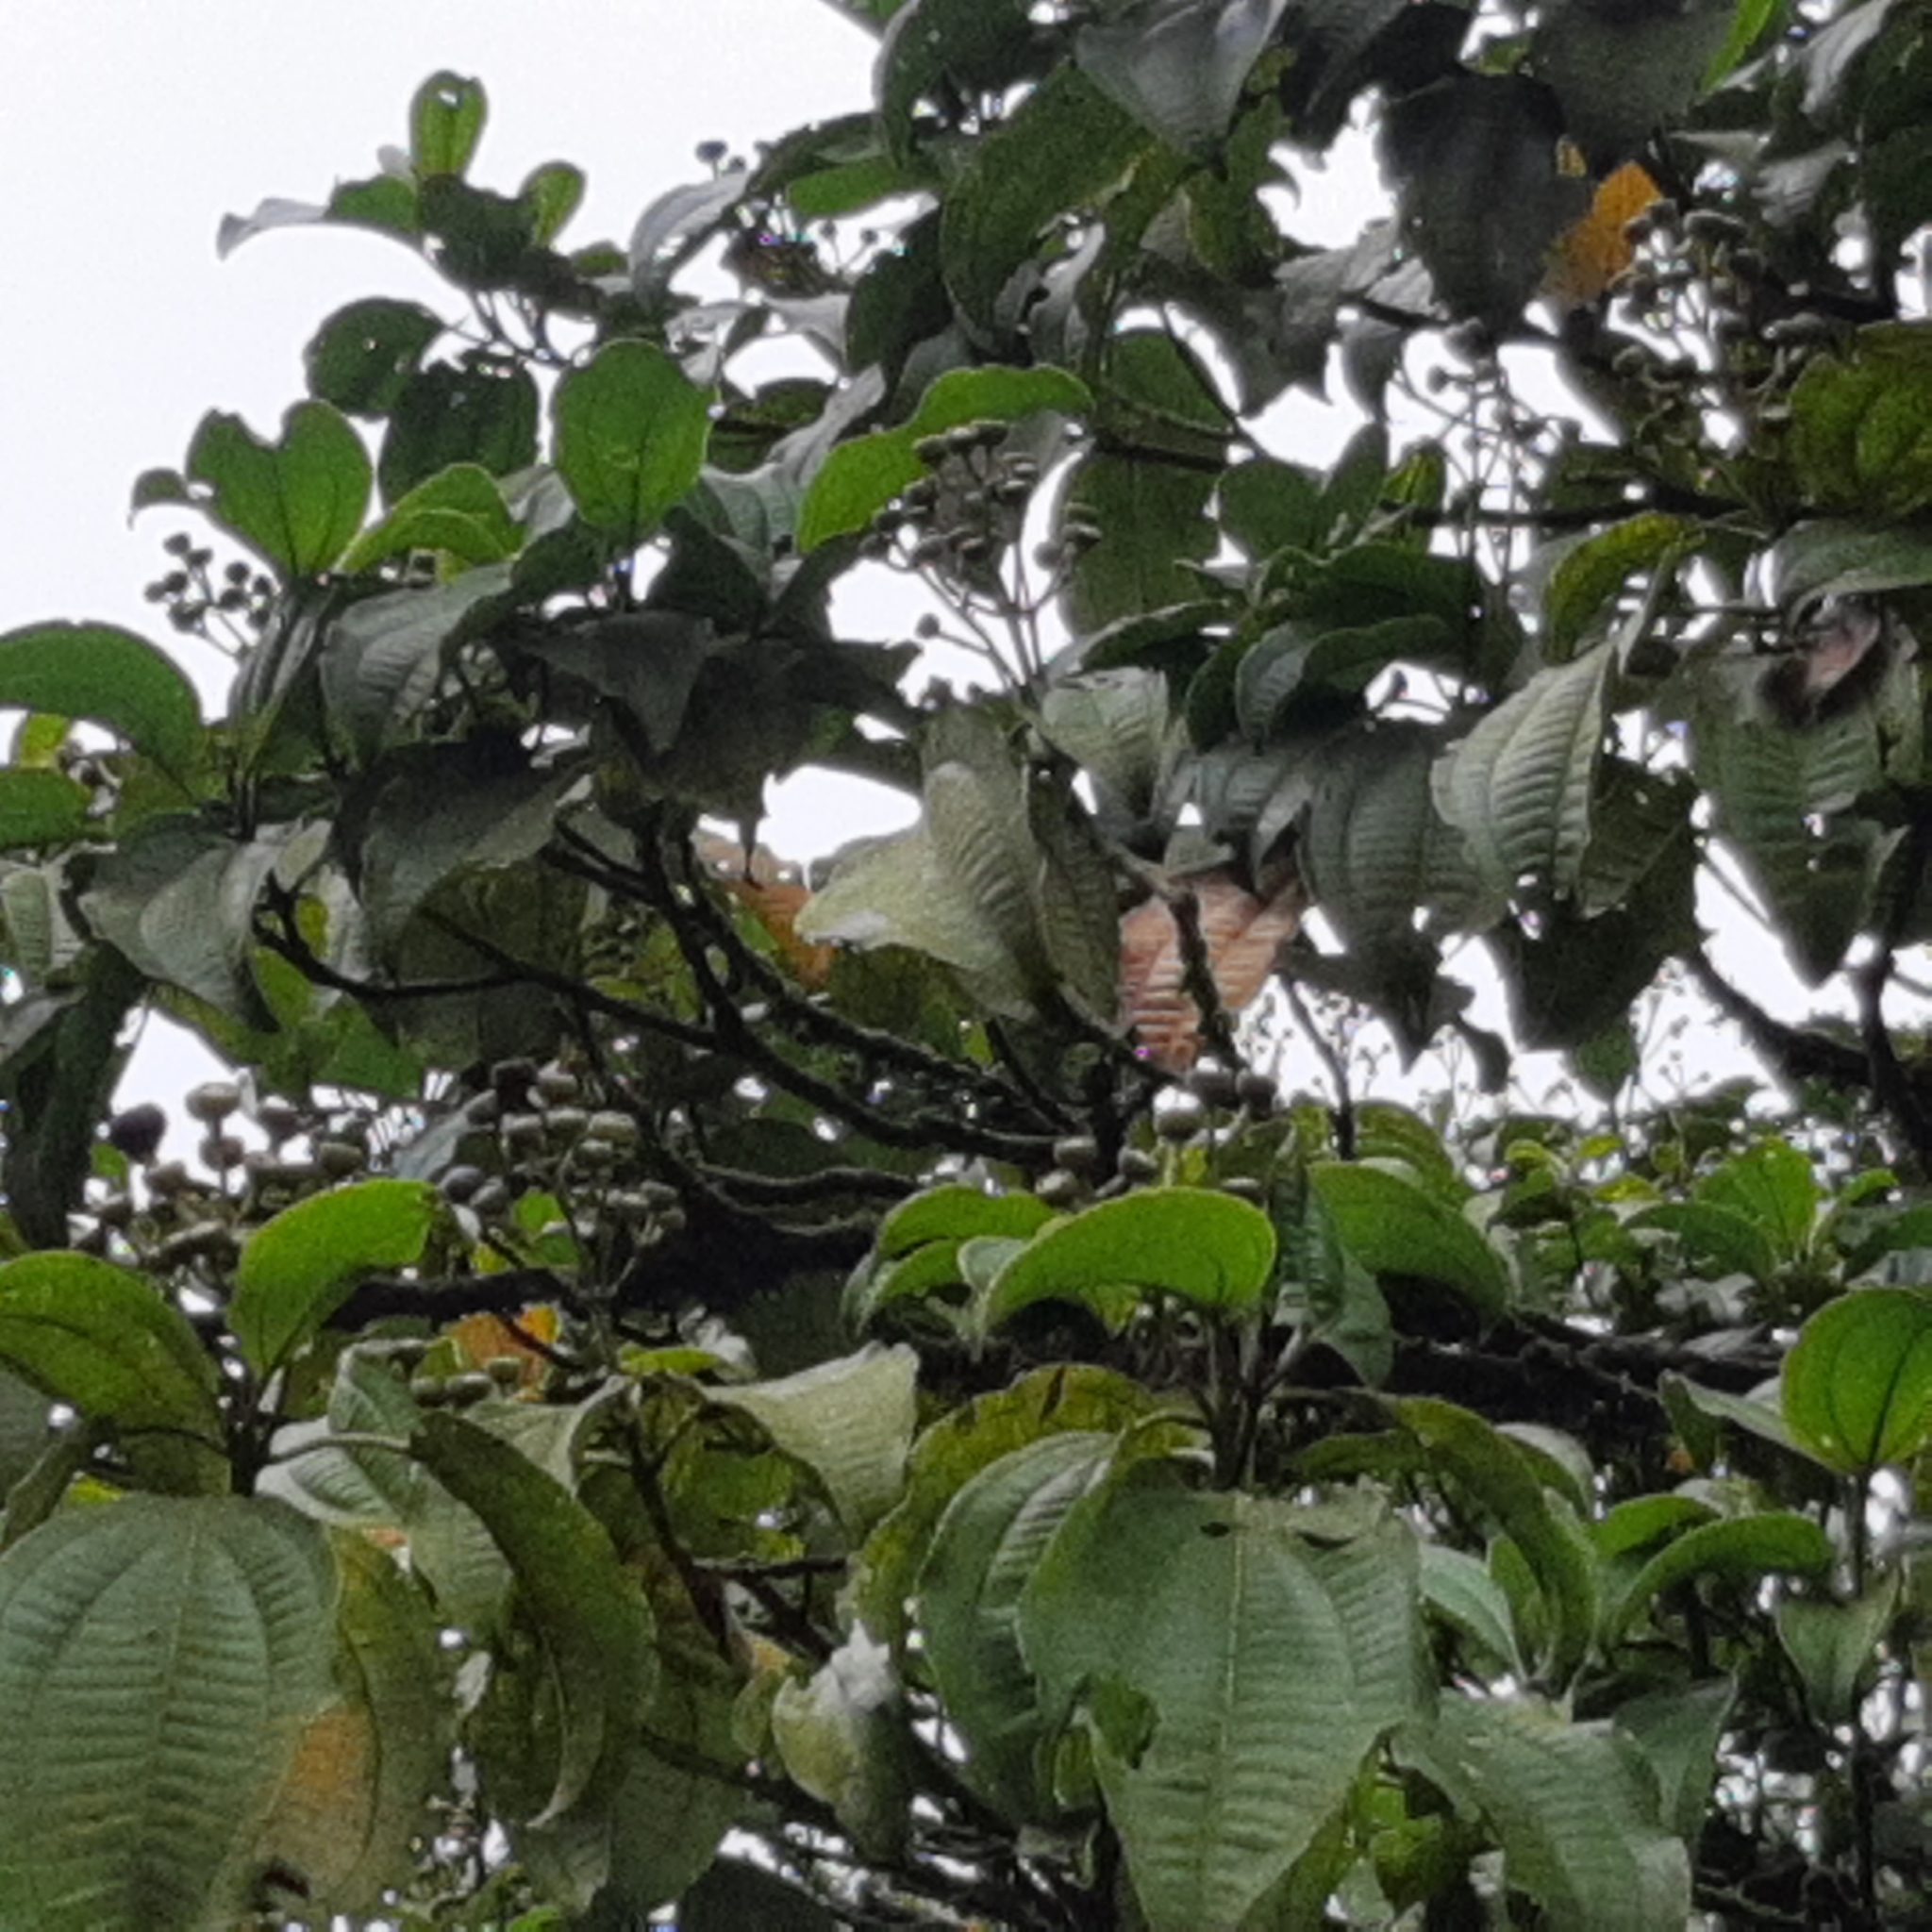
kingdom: Plantae
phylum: Tracheophyta
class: Magnoliopsida
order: Myrtales
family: Melastomataceae
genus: Miconia
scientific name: Miconia oerstediana
